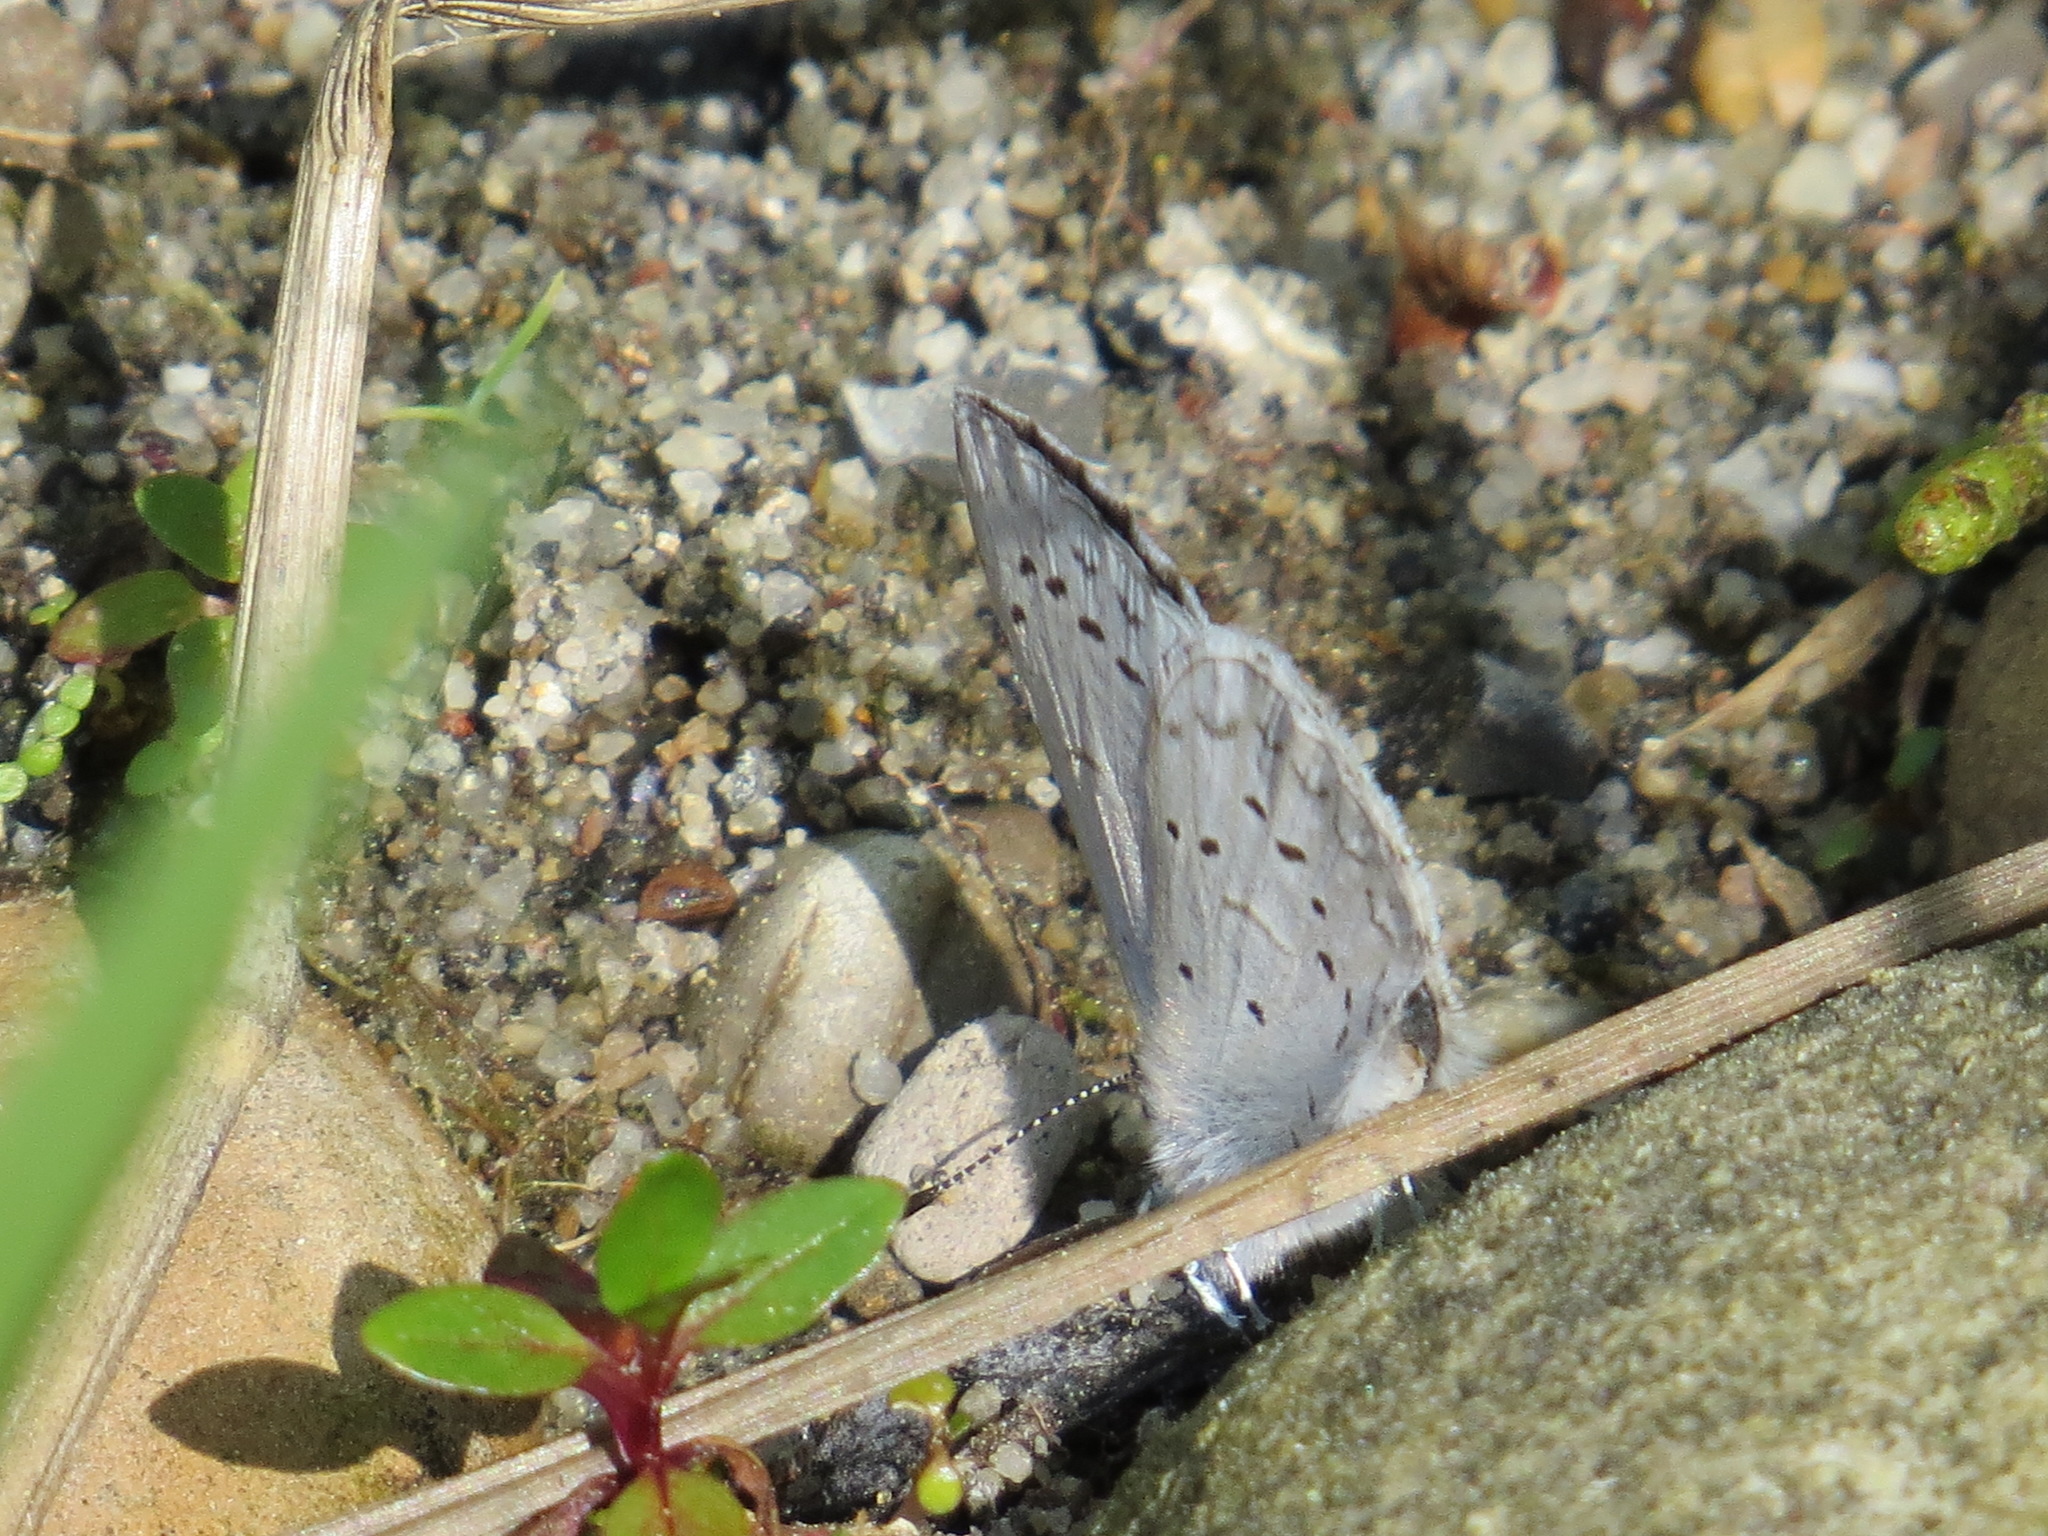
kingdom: Animalia
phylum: Arthropoda
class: Insecta
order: Lepidoptera
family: Lycaenidae
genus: Celastrina
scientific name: Celastrina ladon
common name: Spring azure
